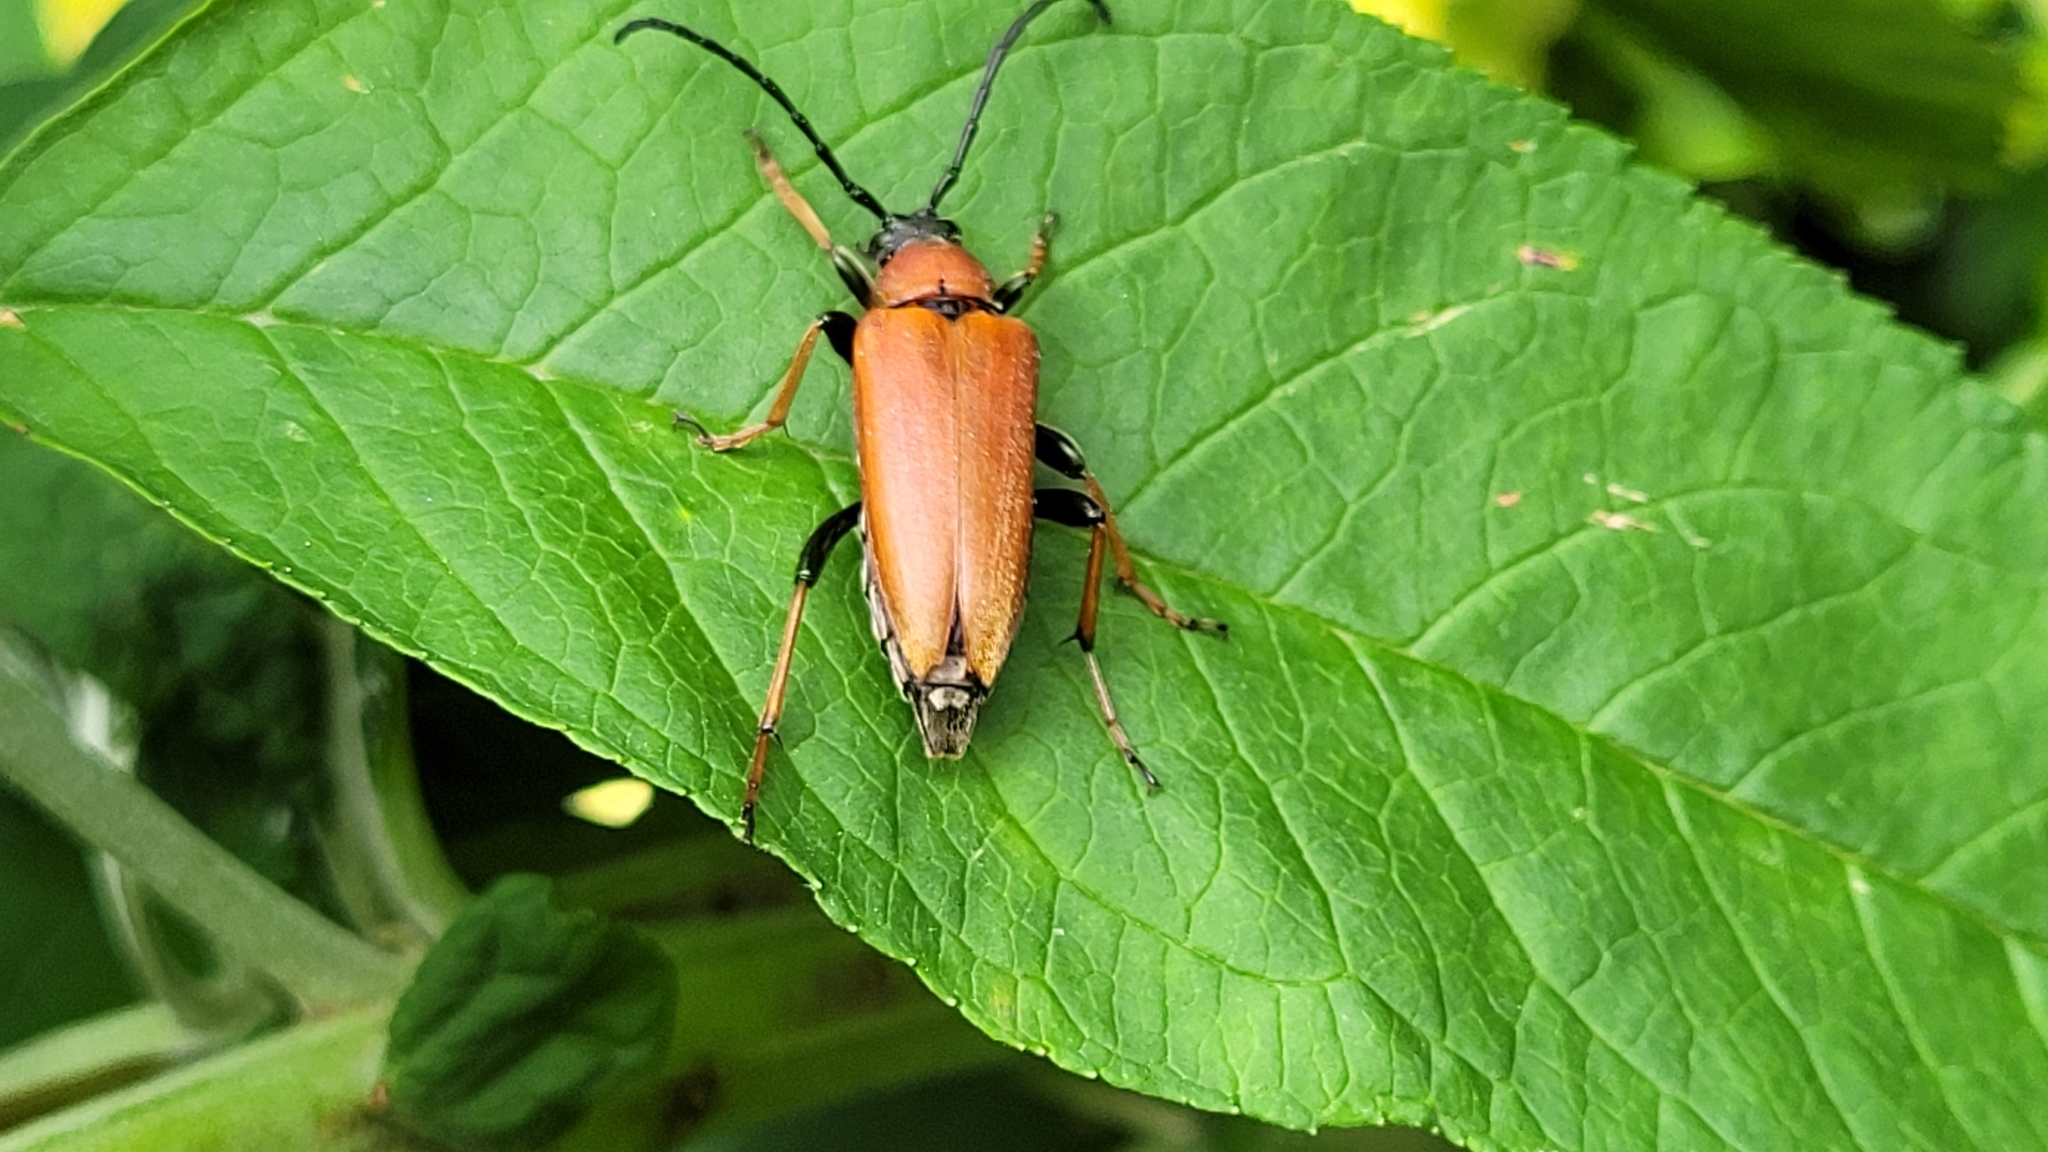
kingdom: Animalia
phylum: Arthropoda
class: Insecta
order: Coleoptera
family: Cerambycidae
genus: Stictoleptura
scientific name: Stictoleptura rubra
